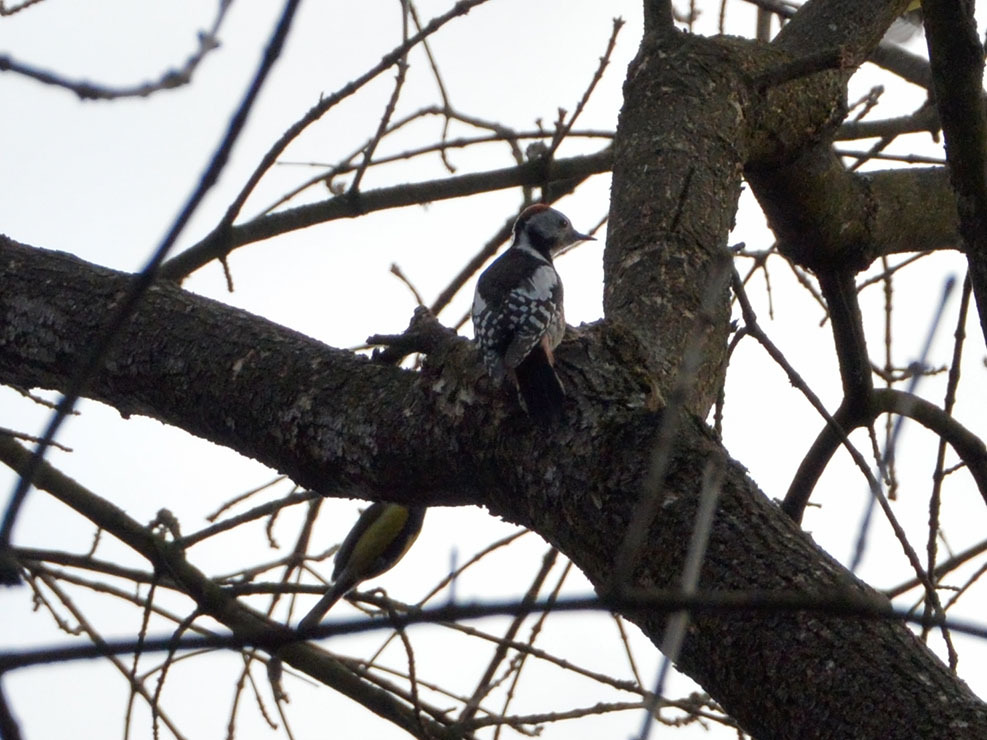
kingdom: Animalia
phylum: Chordata
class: Aves
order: Piciformes
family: Picidae
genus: Dendrocoptes
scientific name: Dendrocoptes medius
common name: Middle spotted woodpecker
